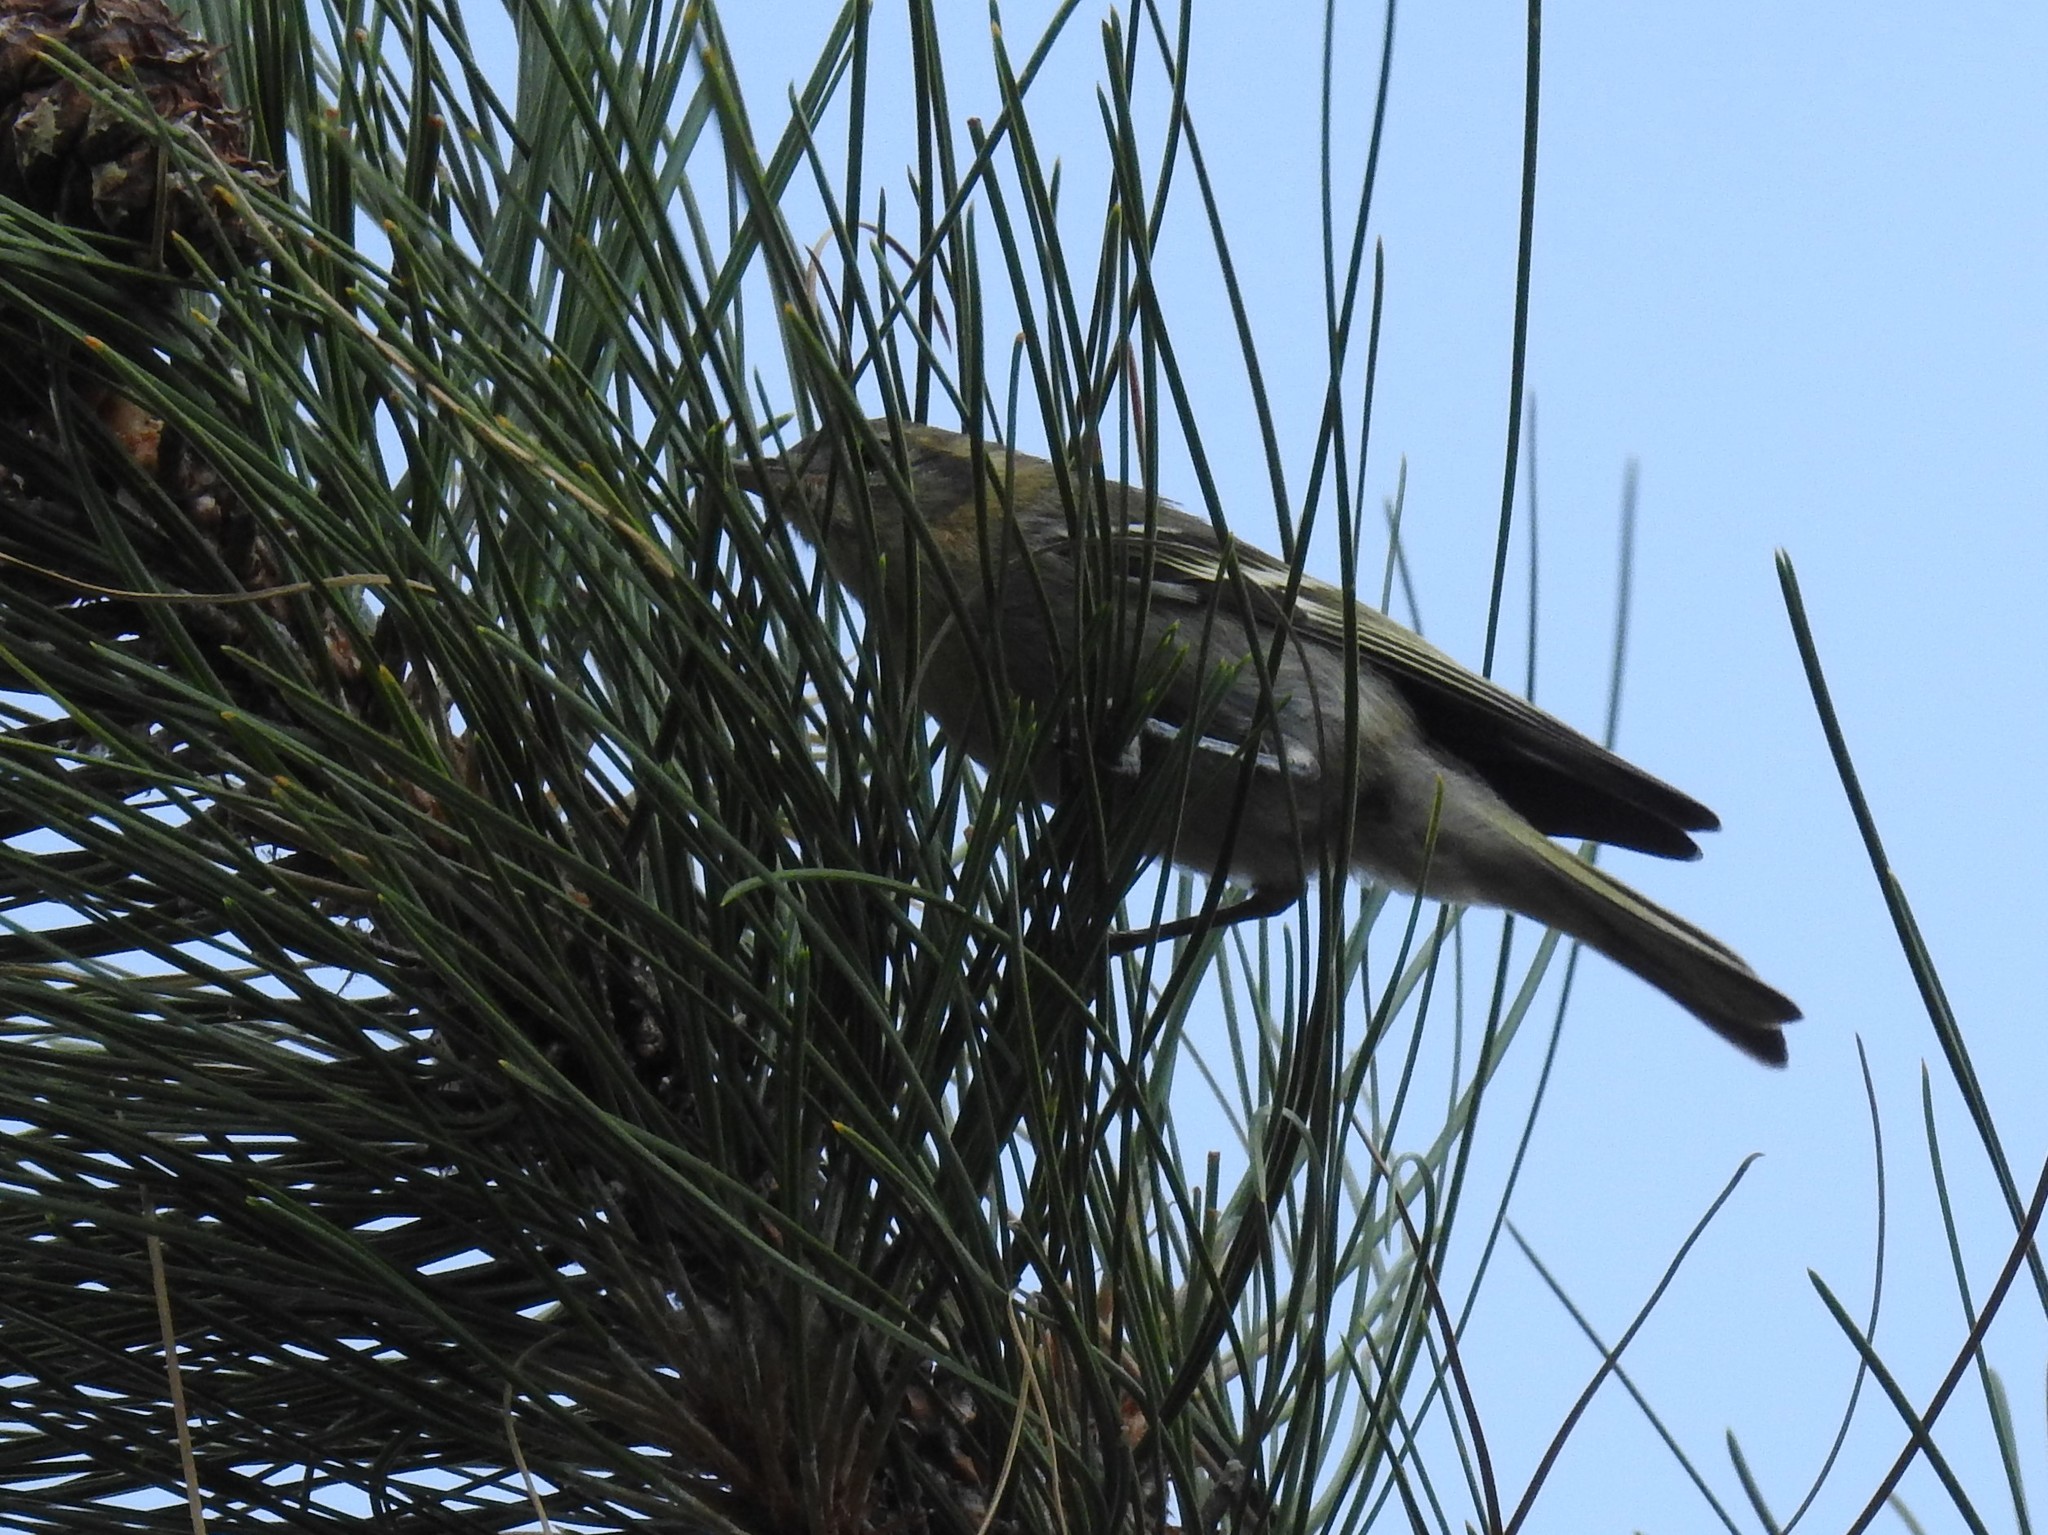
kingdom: Animalia
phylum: Chordata
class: Aves
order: Passeriformes
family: Peucedramidae
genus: Peucedramus
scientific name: Peucedramus taeniatus
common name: Olive warbler
